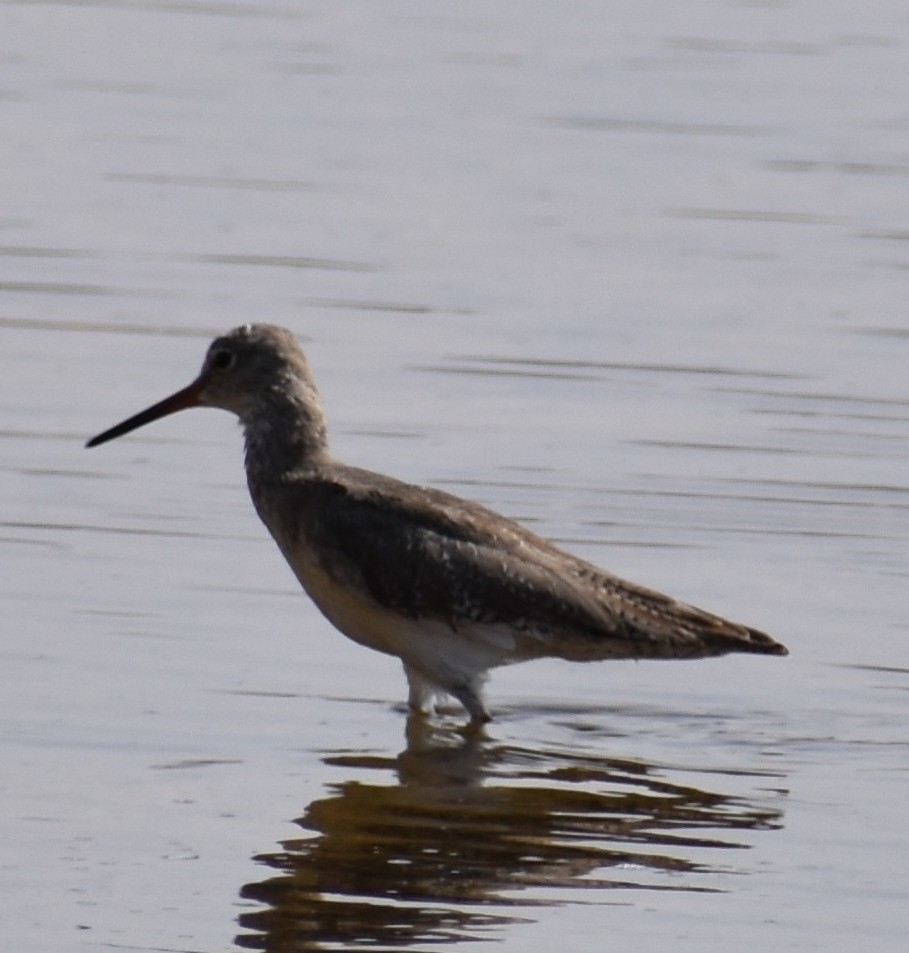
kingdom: Animalia
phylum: Chordata
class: Aves
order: Charadriiformes
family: Scolopacidae
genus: Tringa
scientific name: Tringa totanus
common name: Common redshank
